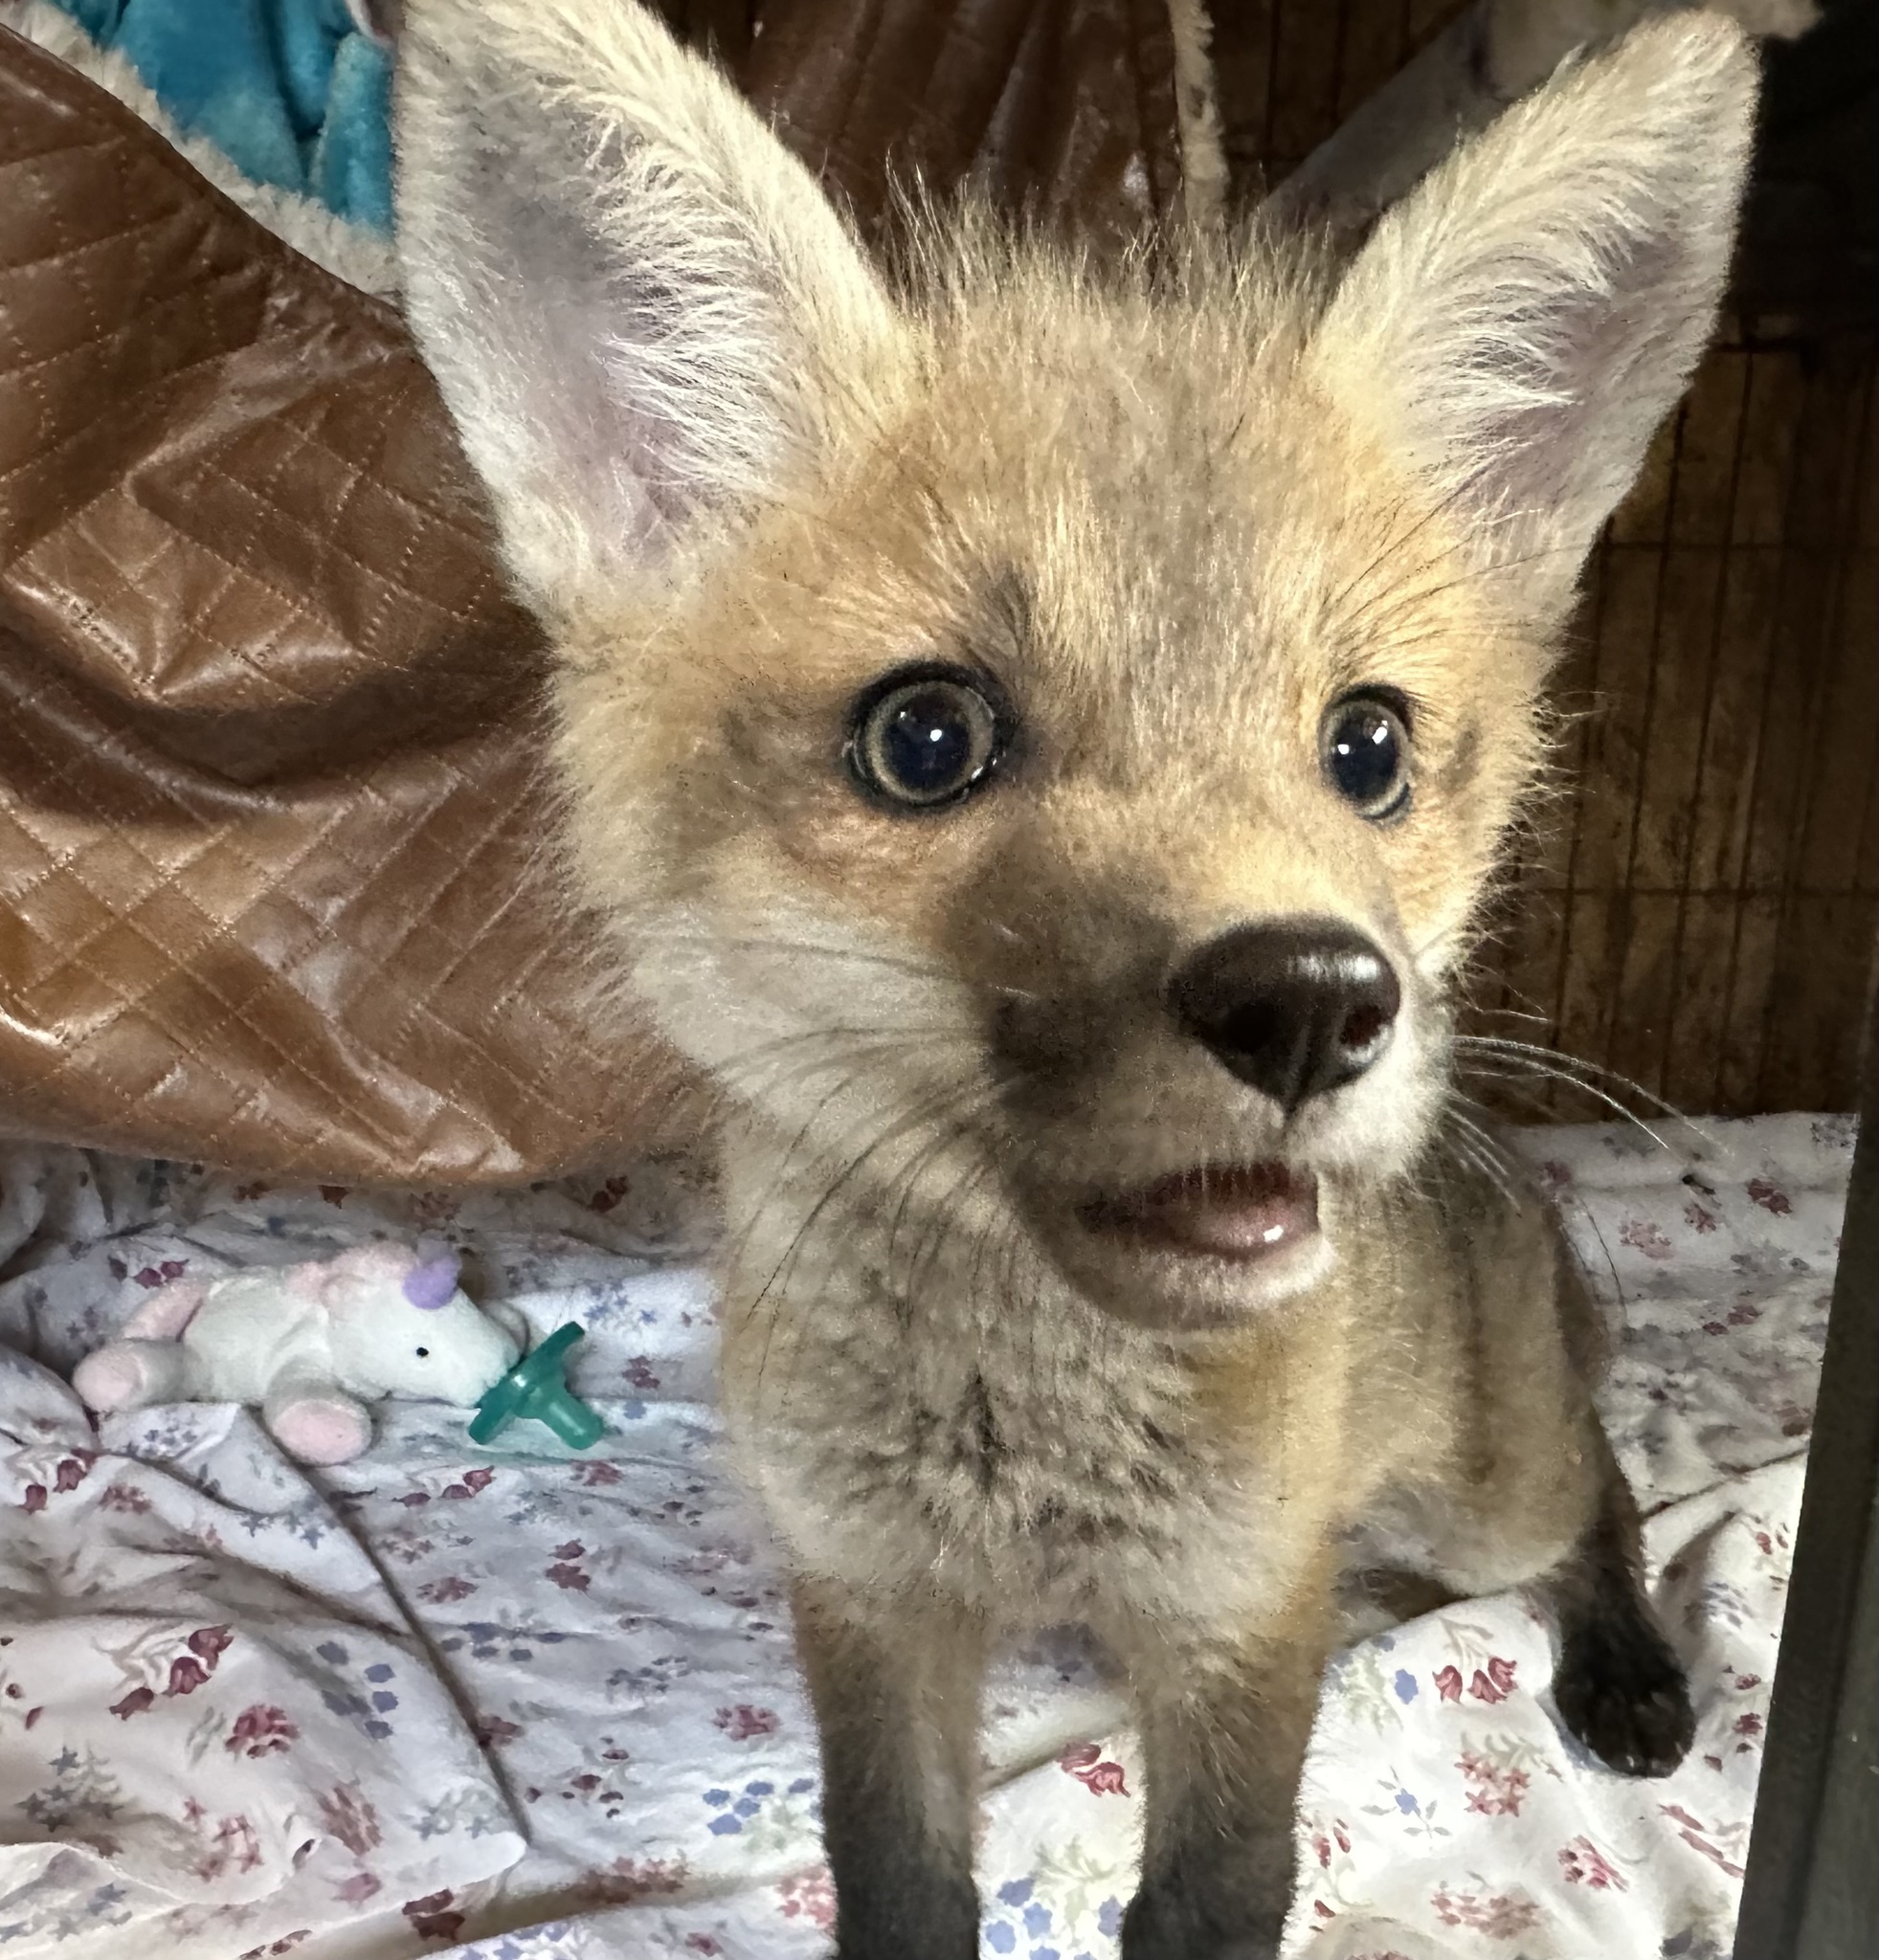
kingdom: Animalia
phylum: Chordata
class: Mammalia
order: Carnivora
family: Canidae
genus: Vulpes
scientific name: Vulpes vulpes
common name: Red fox
